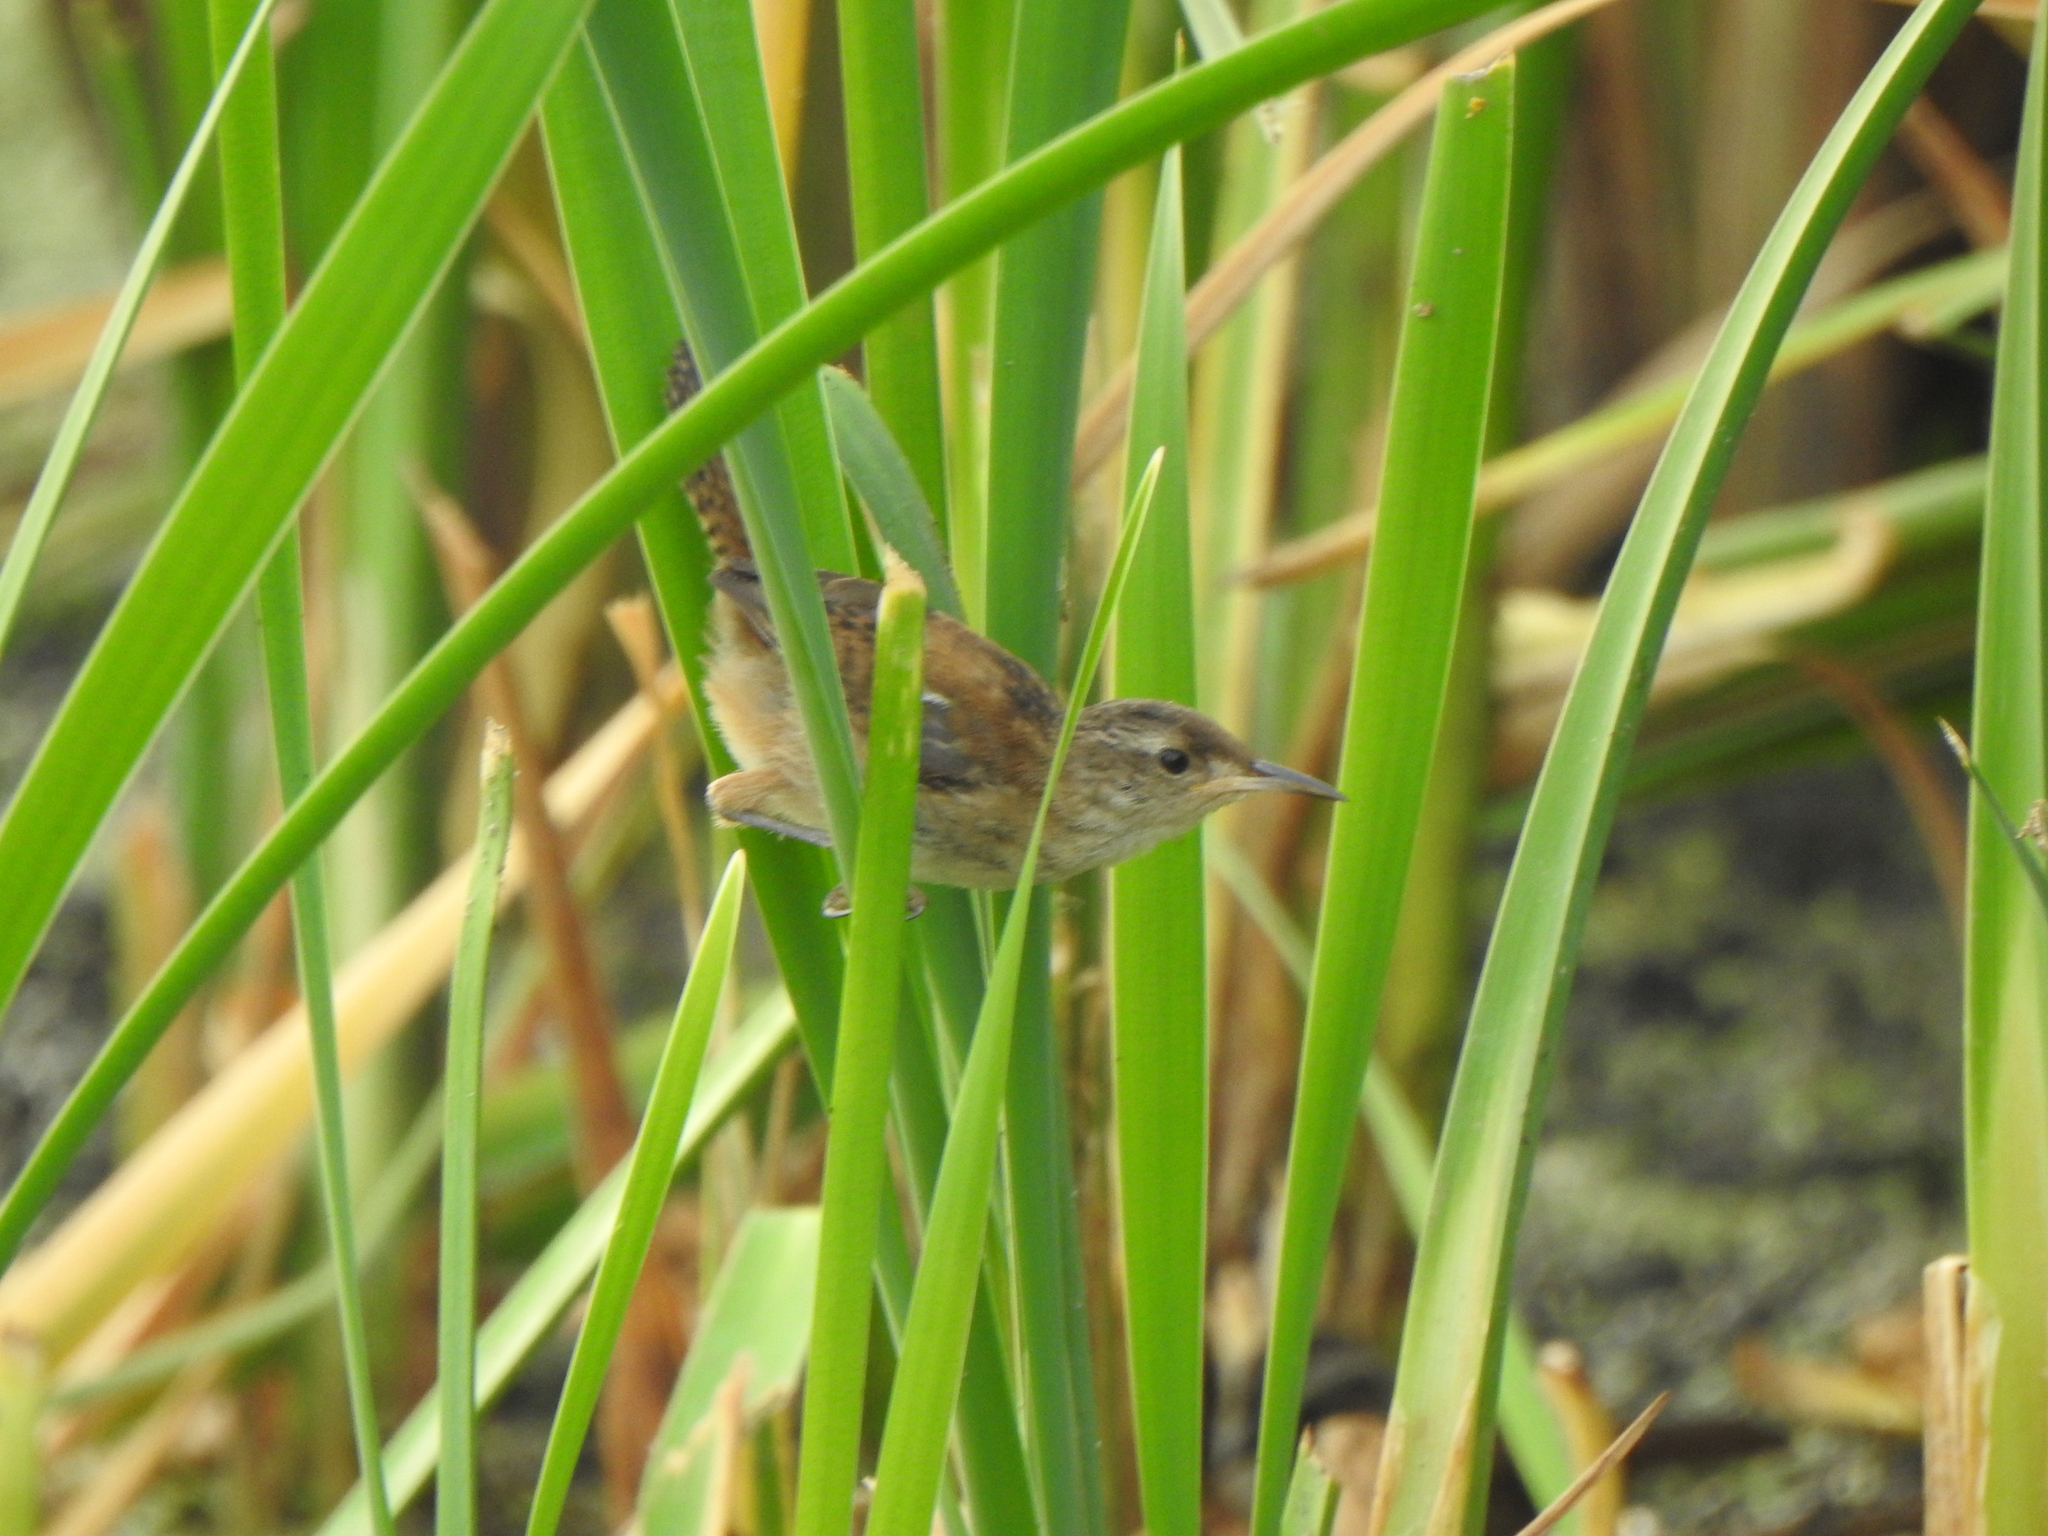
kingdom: Animalia
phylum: Chordata
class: Aves
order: Passeriformes
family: Troglodytidae
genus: Cistothorus
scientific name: Cistothorus palustris
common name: Marsh wren
